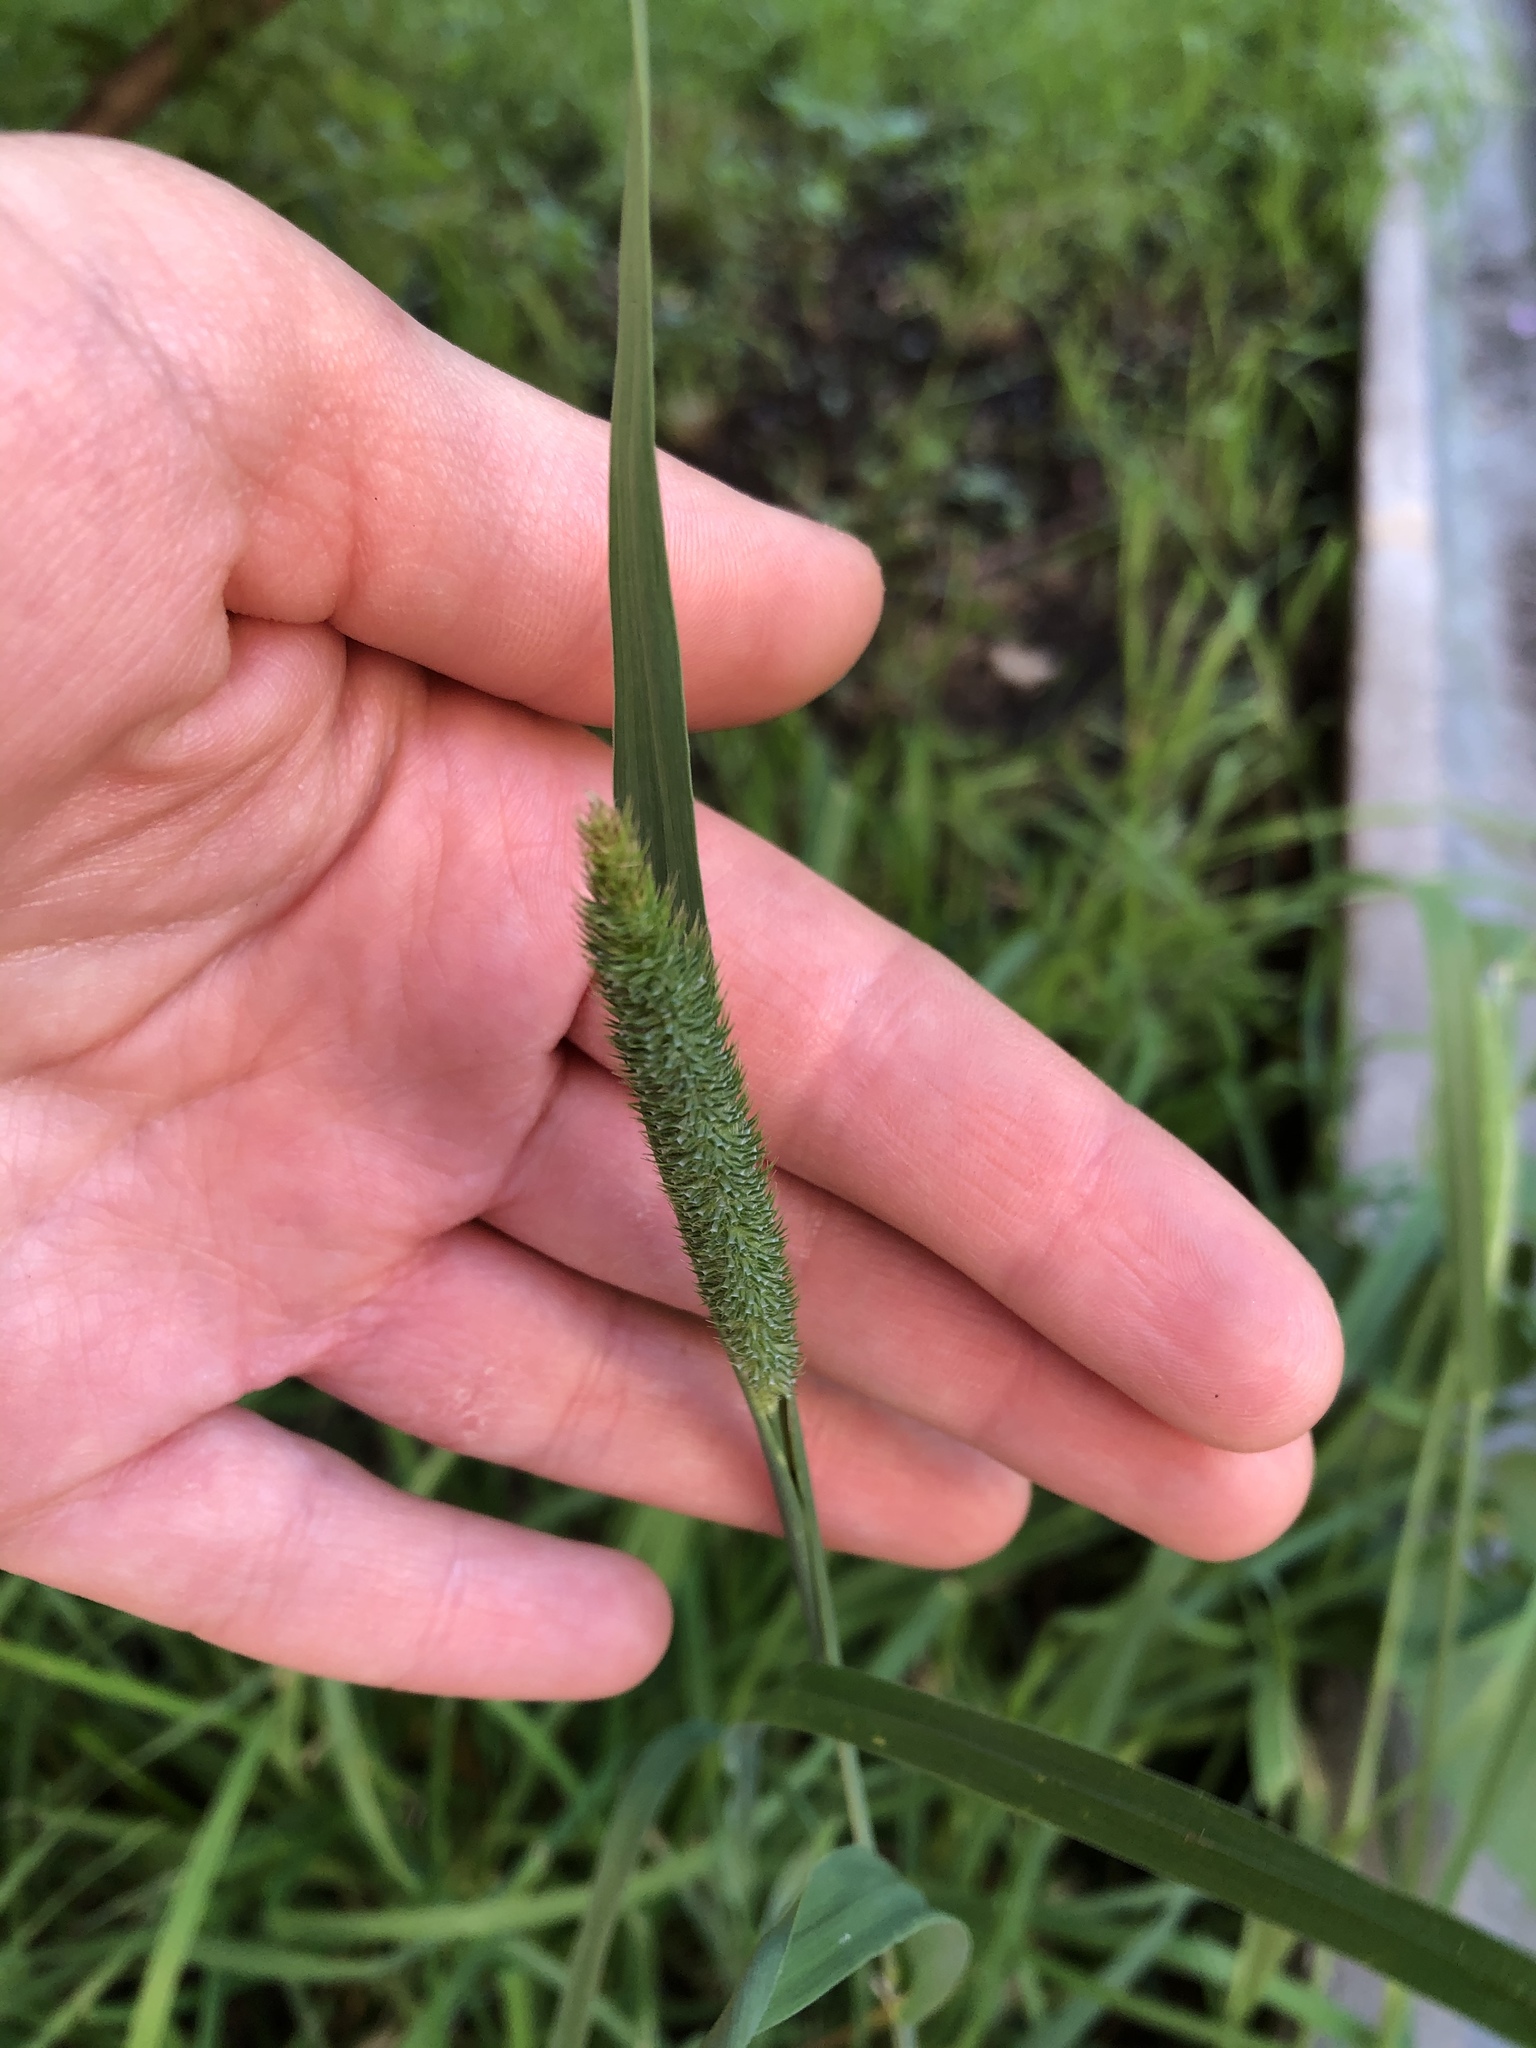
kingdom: Plantae
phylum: Tracheophyta
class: Liliopsida
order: Poales
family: Poaceae
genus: Phleum
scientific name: Phleum pratense
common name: Timothy grass
